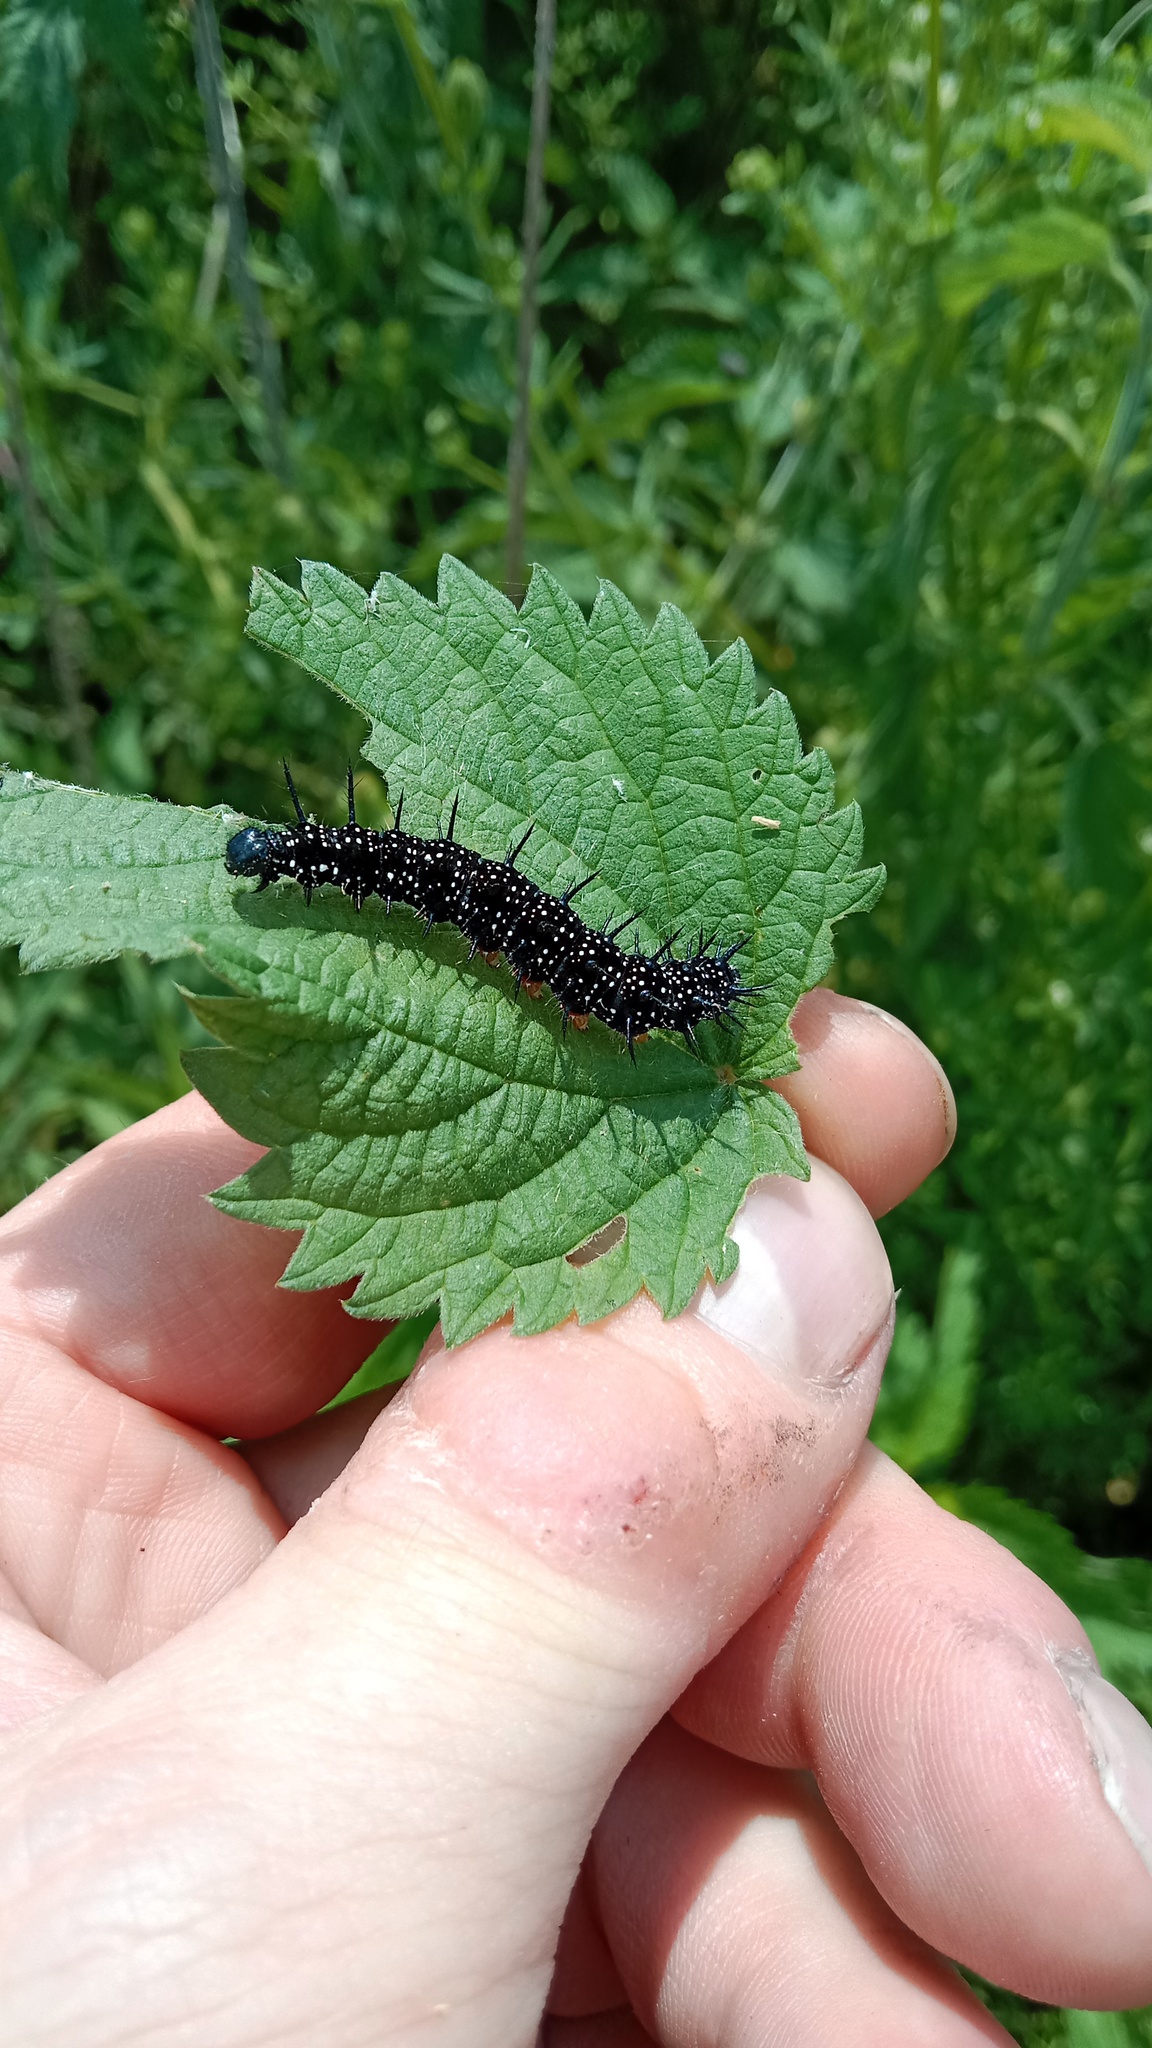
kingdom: Animalia
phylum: Arthropoda
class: Insecta
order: Lepidoptera
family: Nymphalidae
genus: Aglais
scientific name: Aglais io
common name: Peacock
